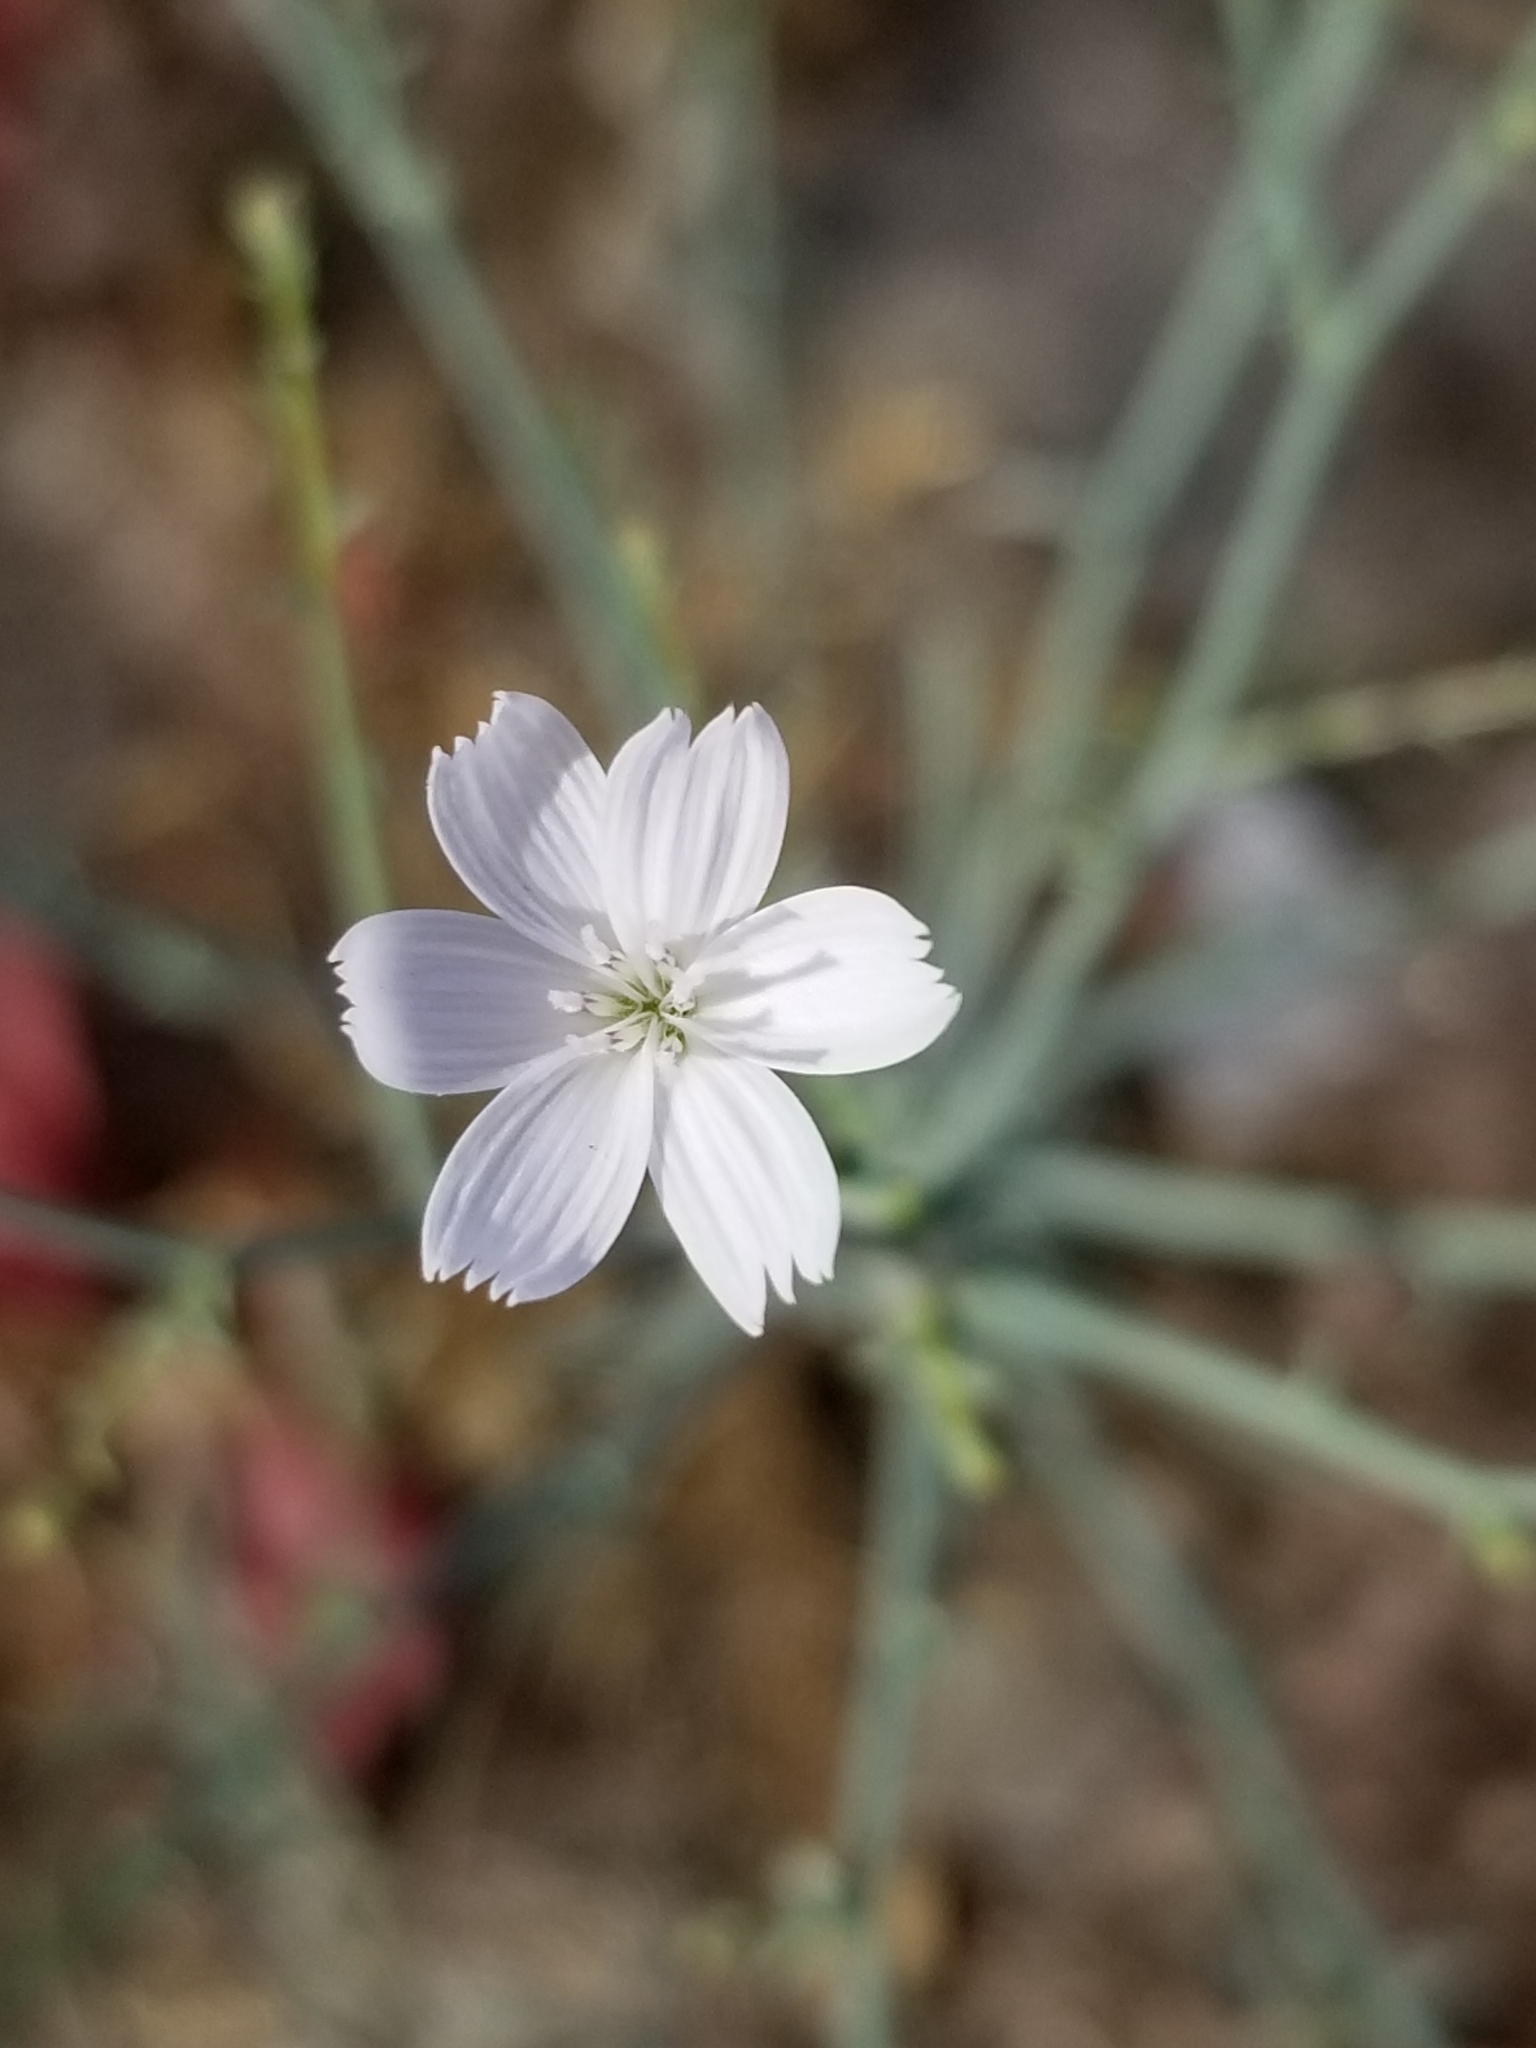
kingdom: Plantae
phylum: Tracheophyta
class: Magnoliopsida
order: Asterales
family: Asteraceae
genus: Stephanomeria
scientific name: Stephanomeria pauciflora
